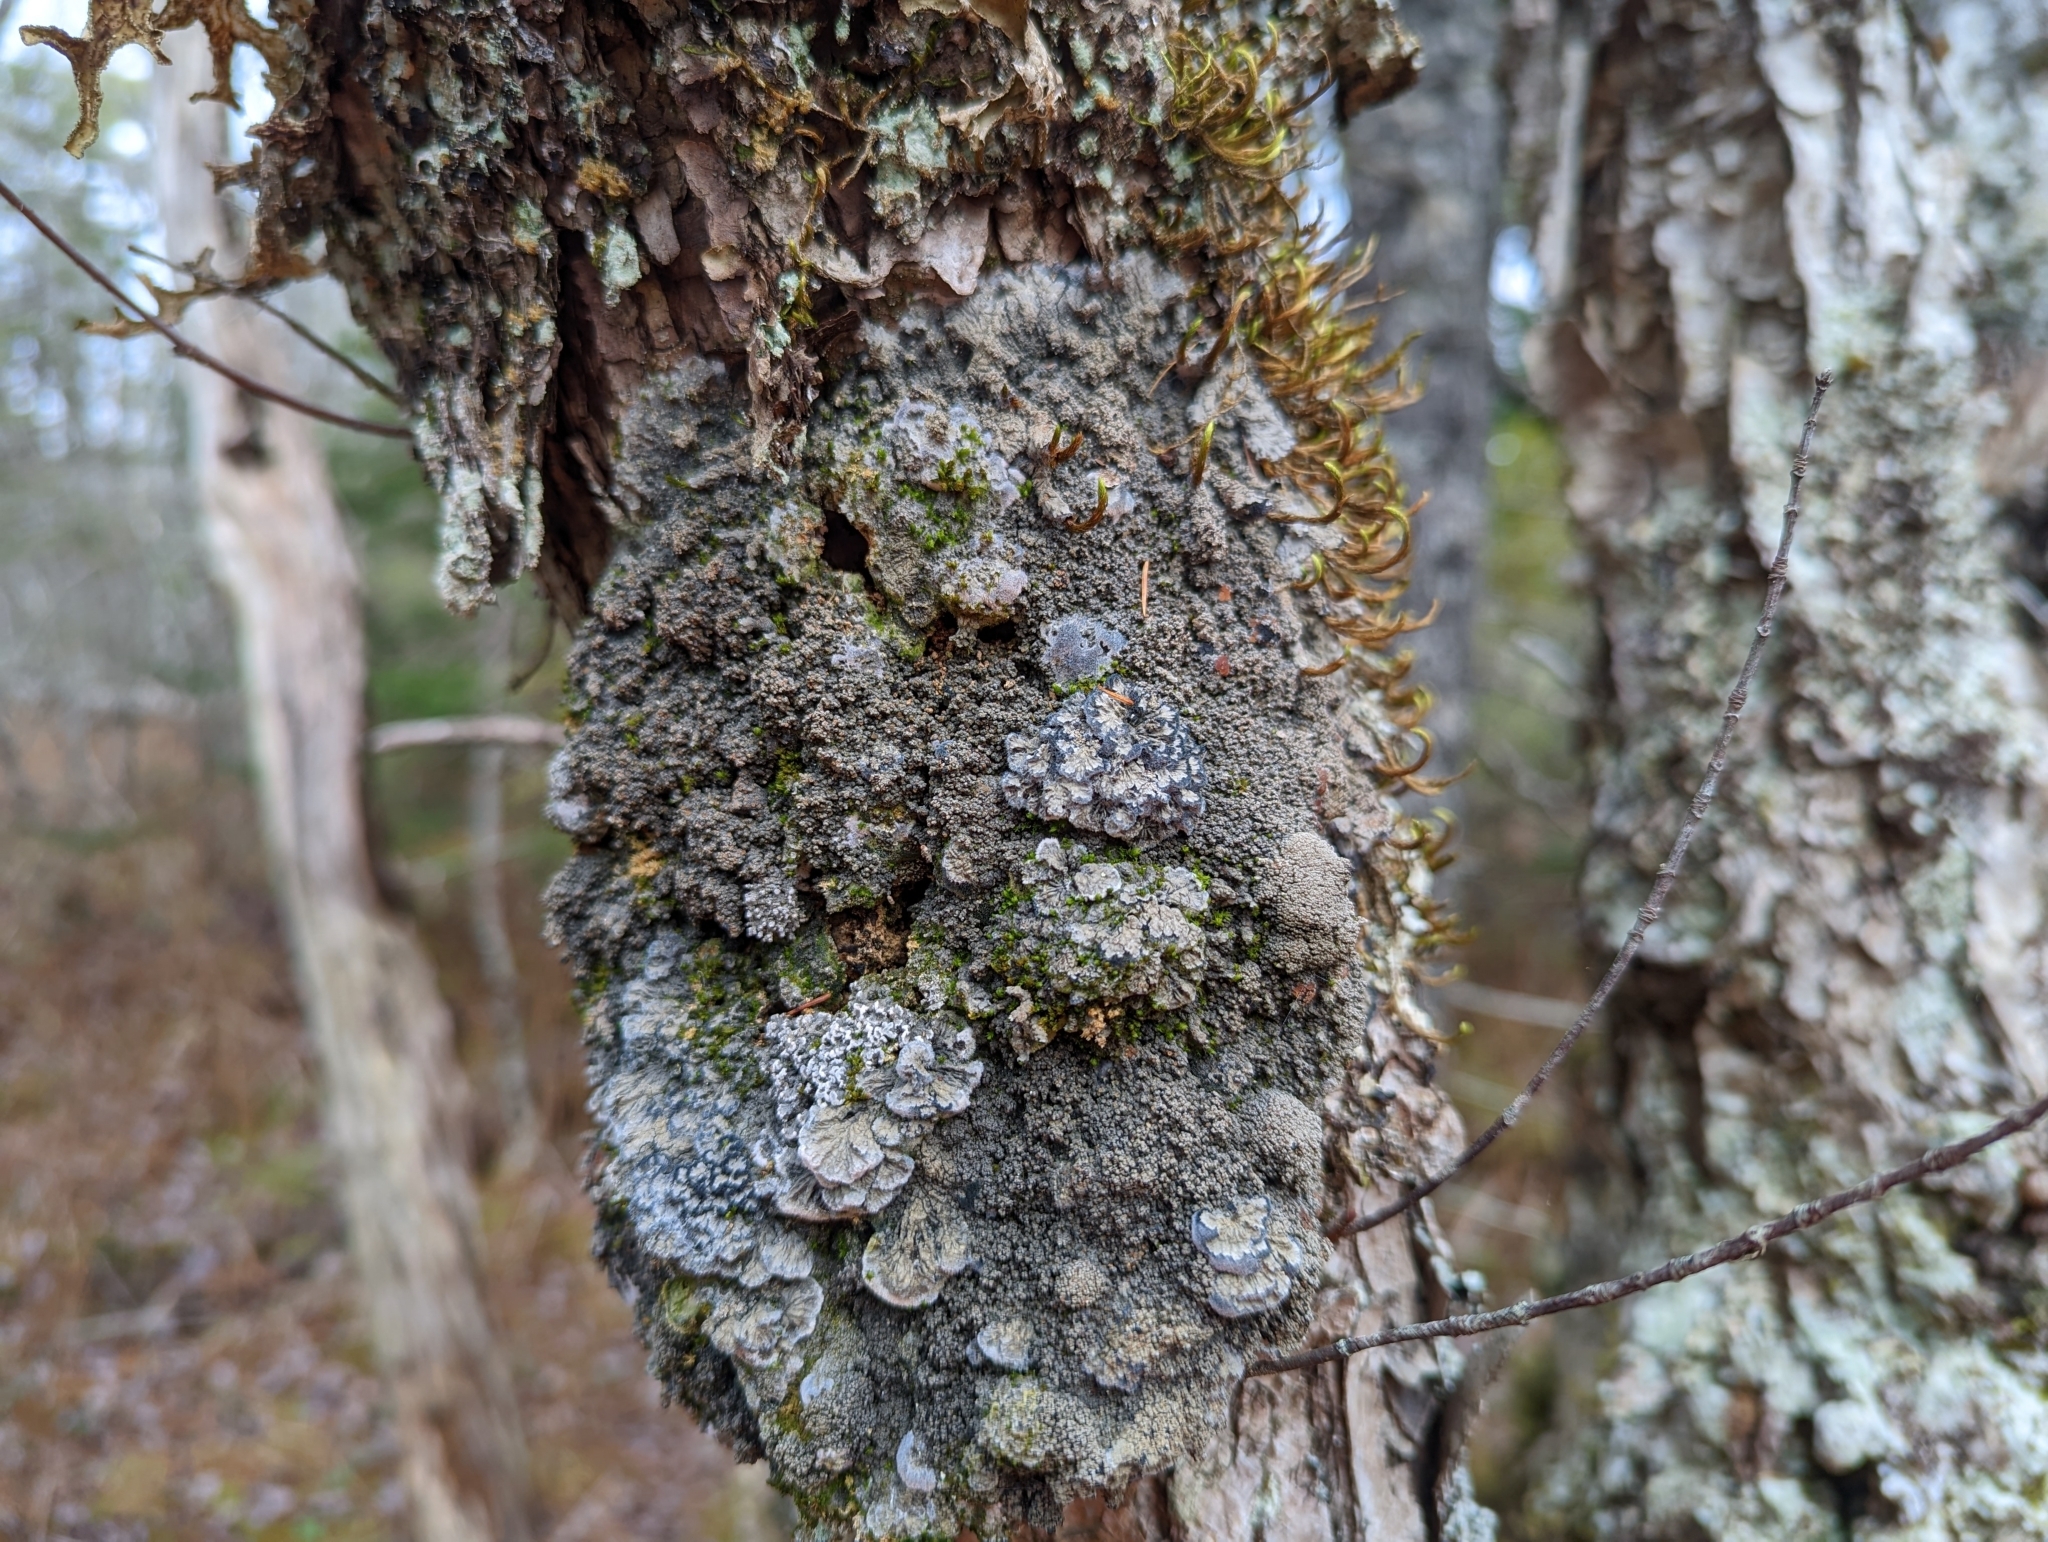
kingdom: Fungi
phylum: Ascomycota
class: Lecanoromycetes
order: Peltigerales
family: Pannariaceae
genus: Pectenia
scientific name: Pectenia plumbea
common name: Bladder stalks
